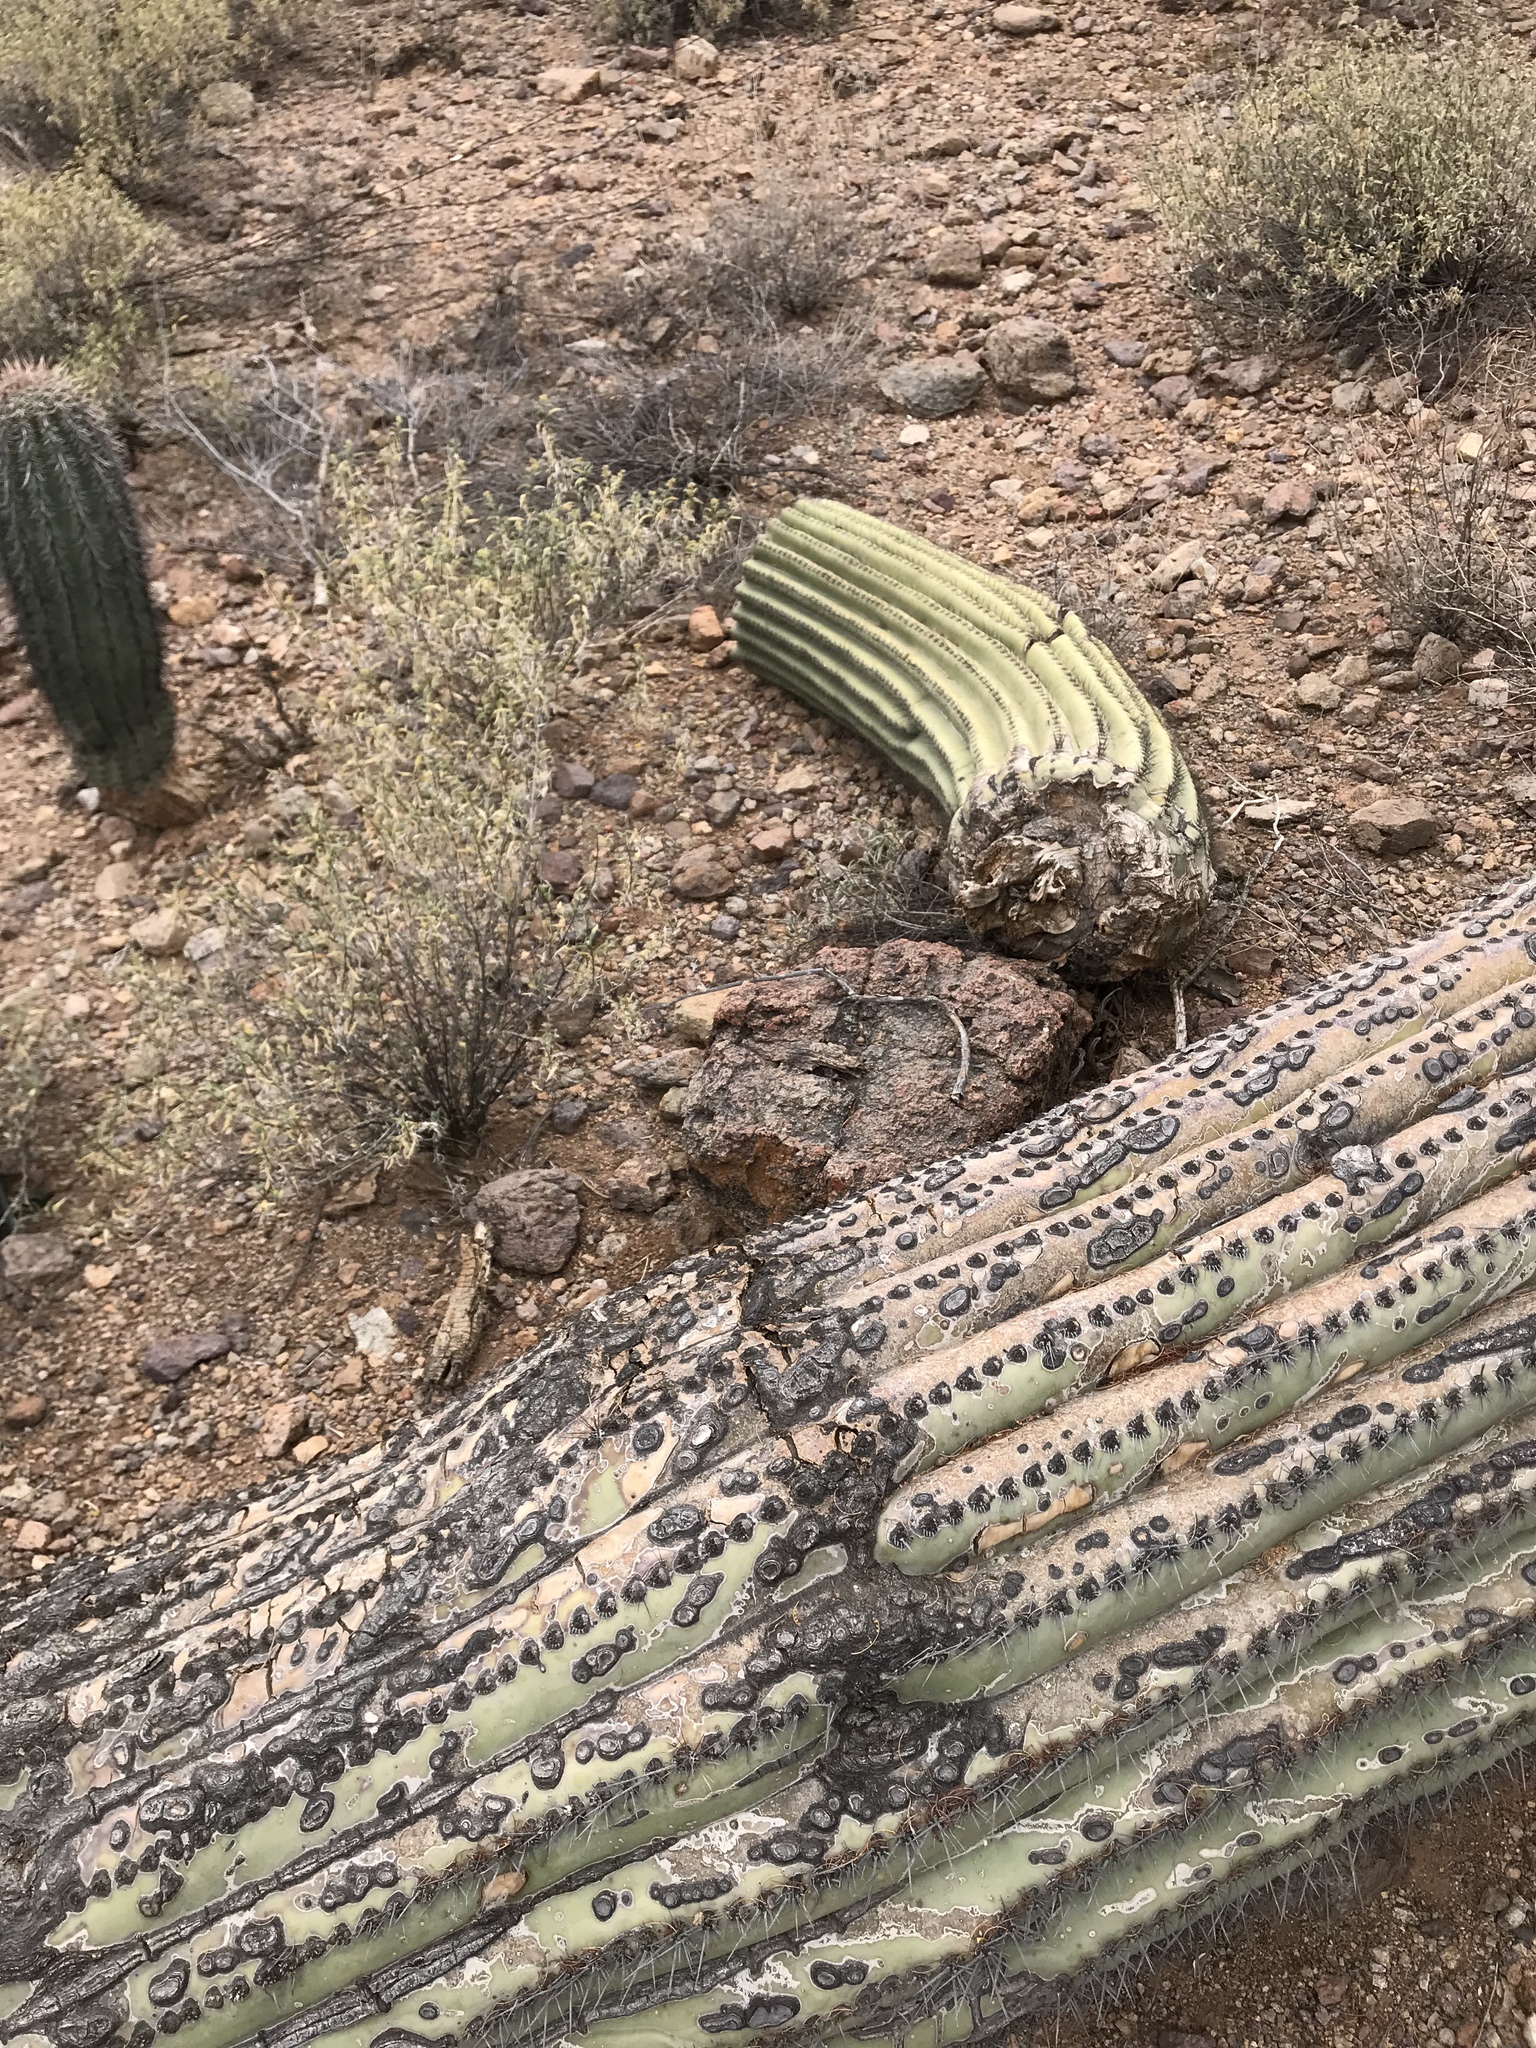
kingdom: Plantae
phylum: Tracheophyta
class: Magnoliopsida
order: Caryophyllales
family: Cactaceae
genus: Carnegiea
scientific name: Carnegiea gigantea
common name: Saguaro
